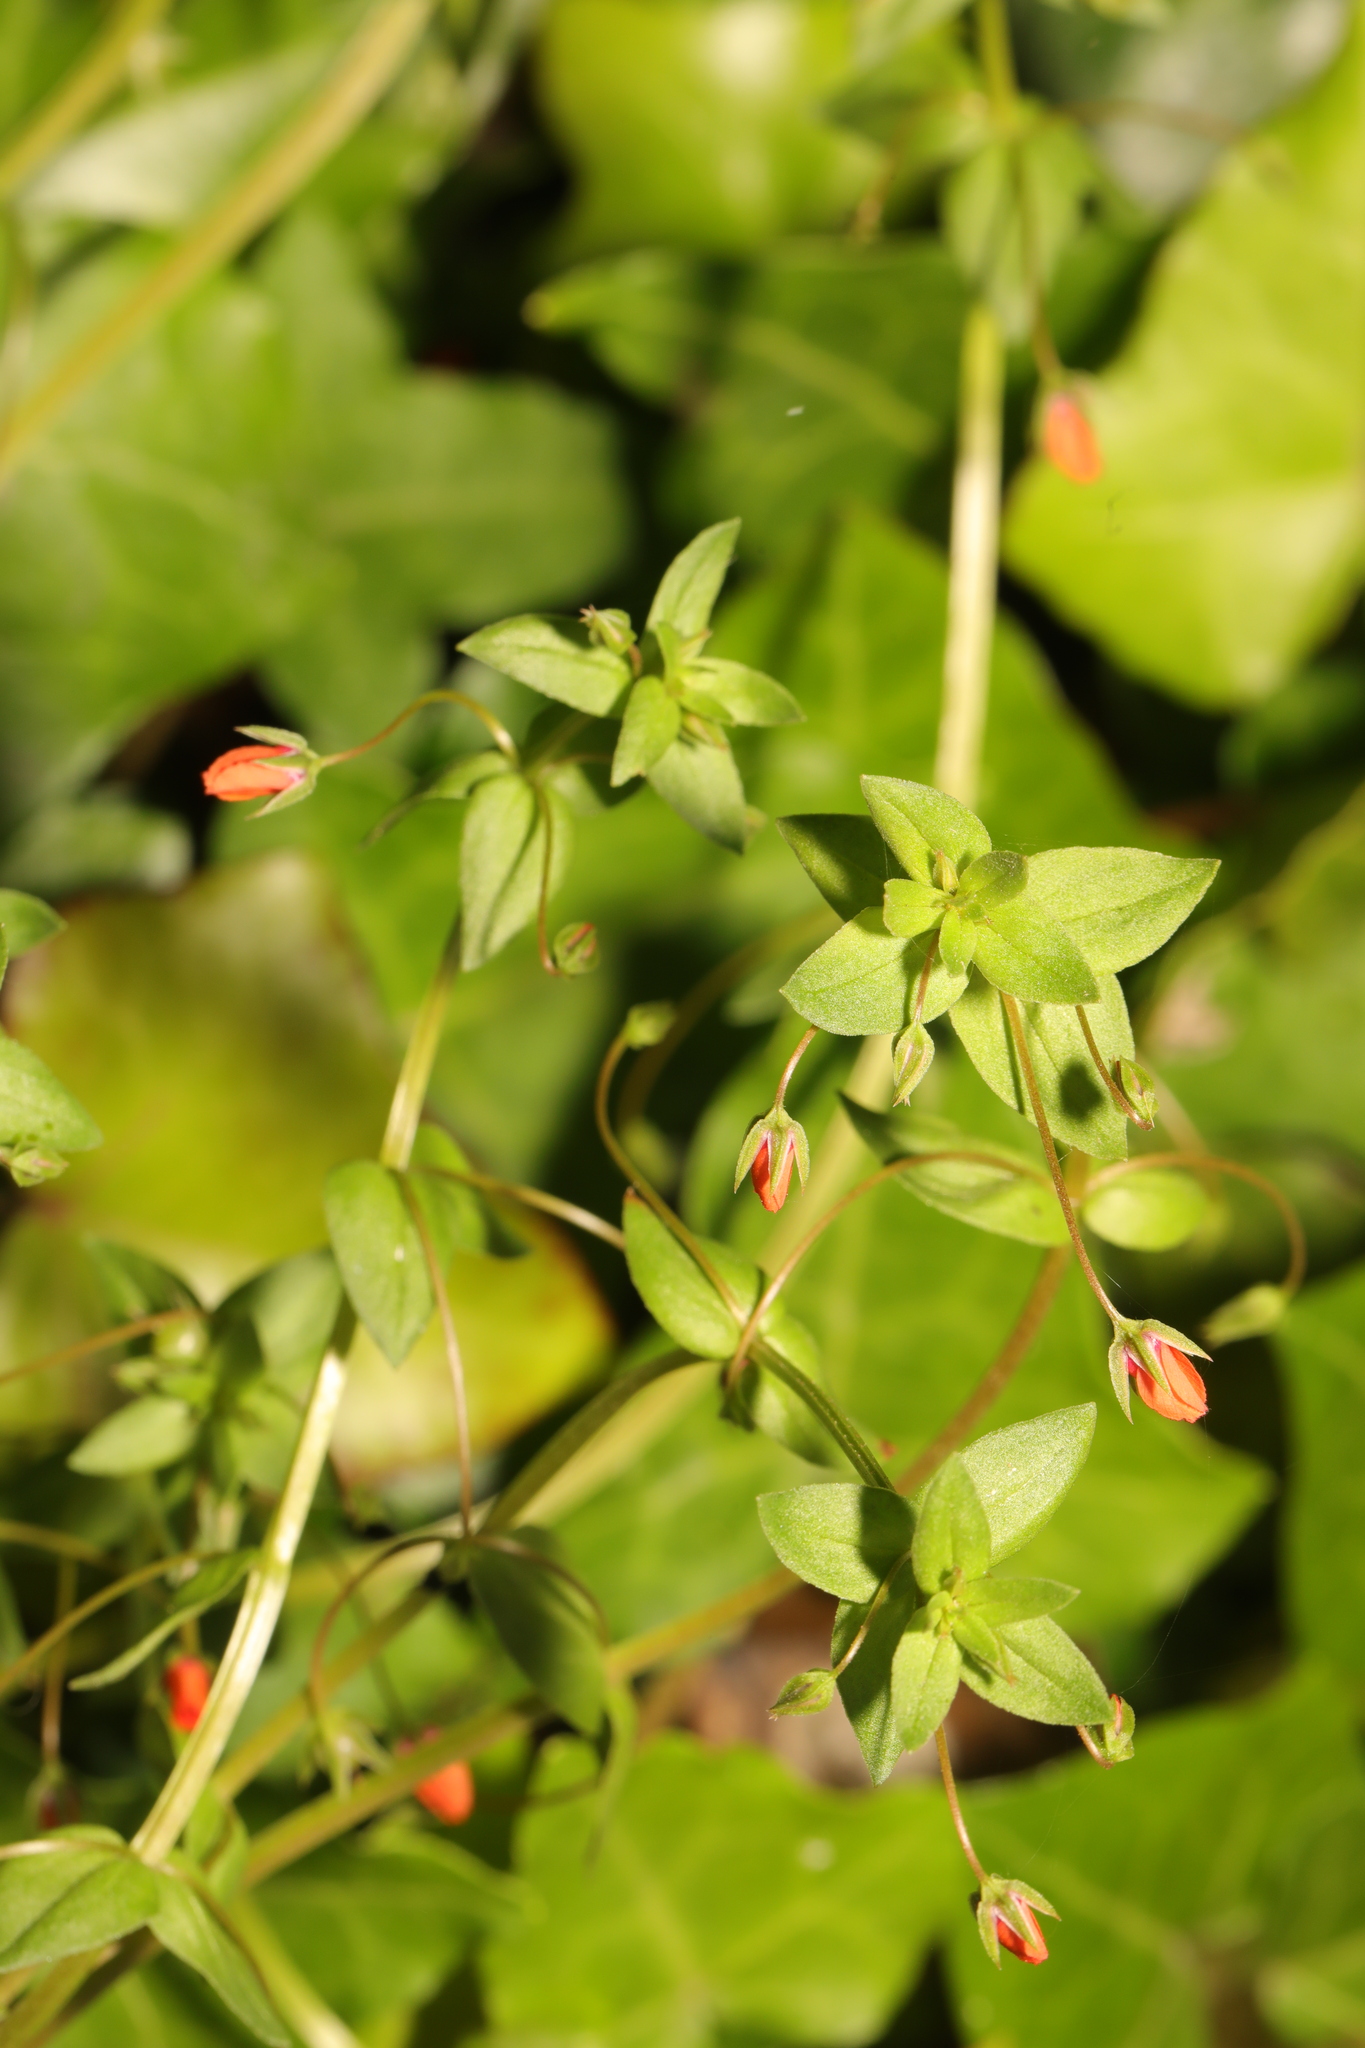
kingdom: Plantae
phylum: Tracheophyta
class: Magnoliopsida
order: Ericales
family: Primulaceae
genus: Lysimachia
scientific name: Lysimachia arvensis
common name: Scarlet pimpernel
